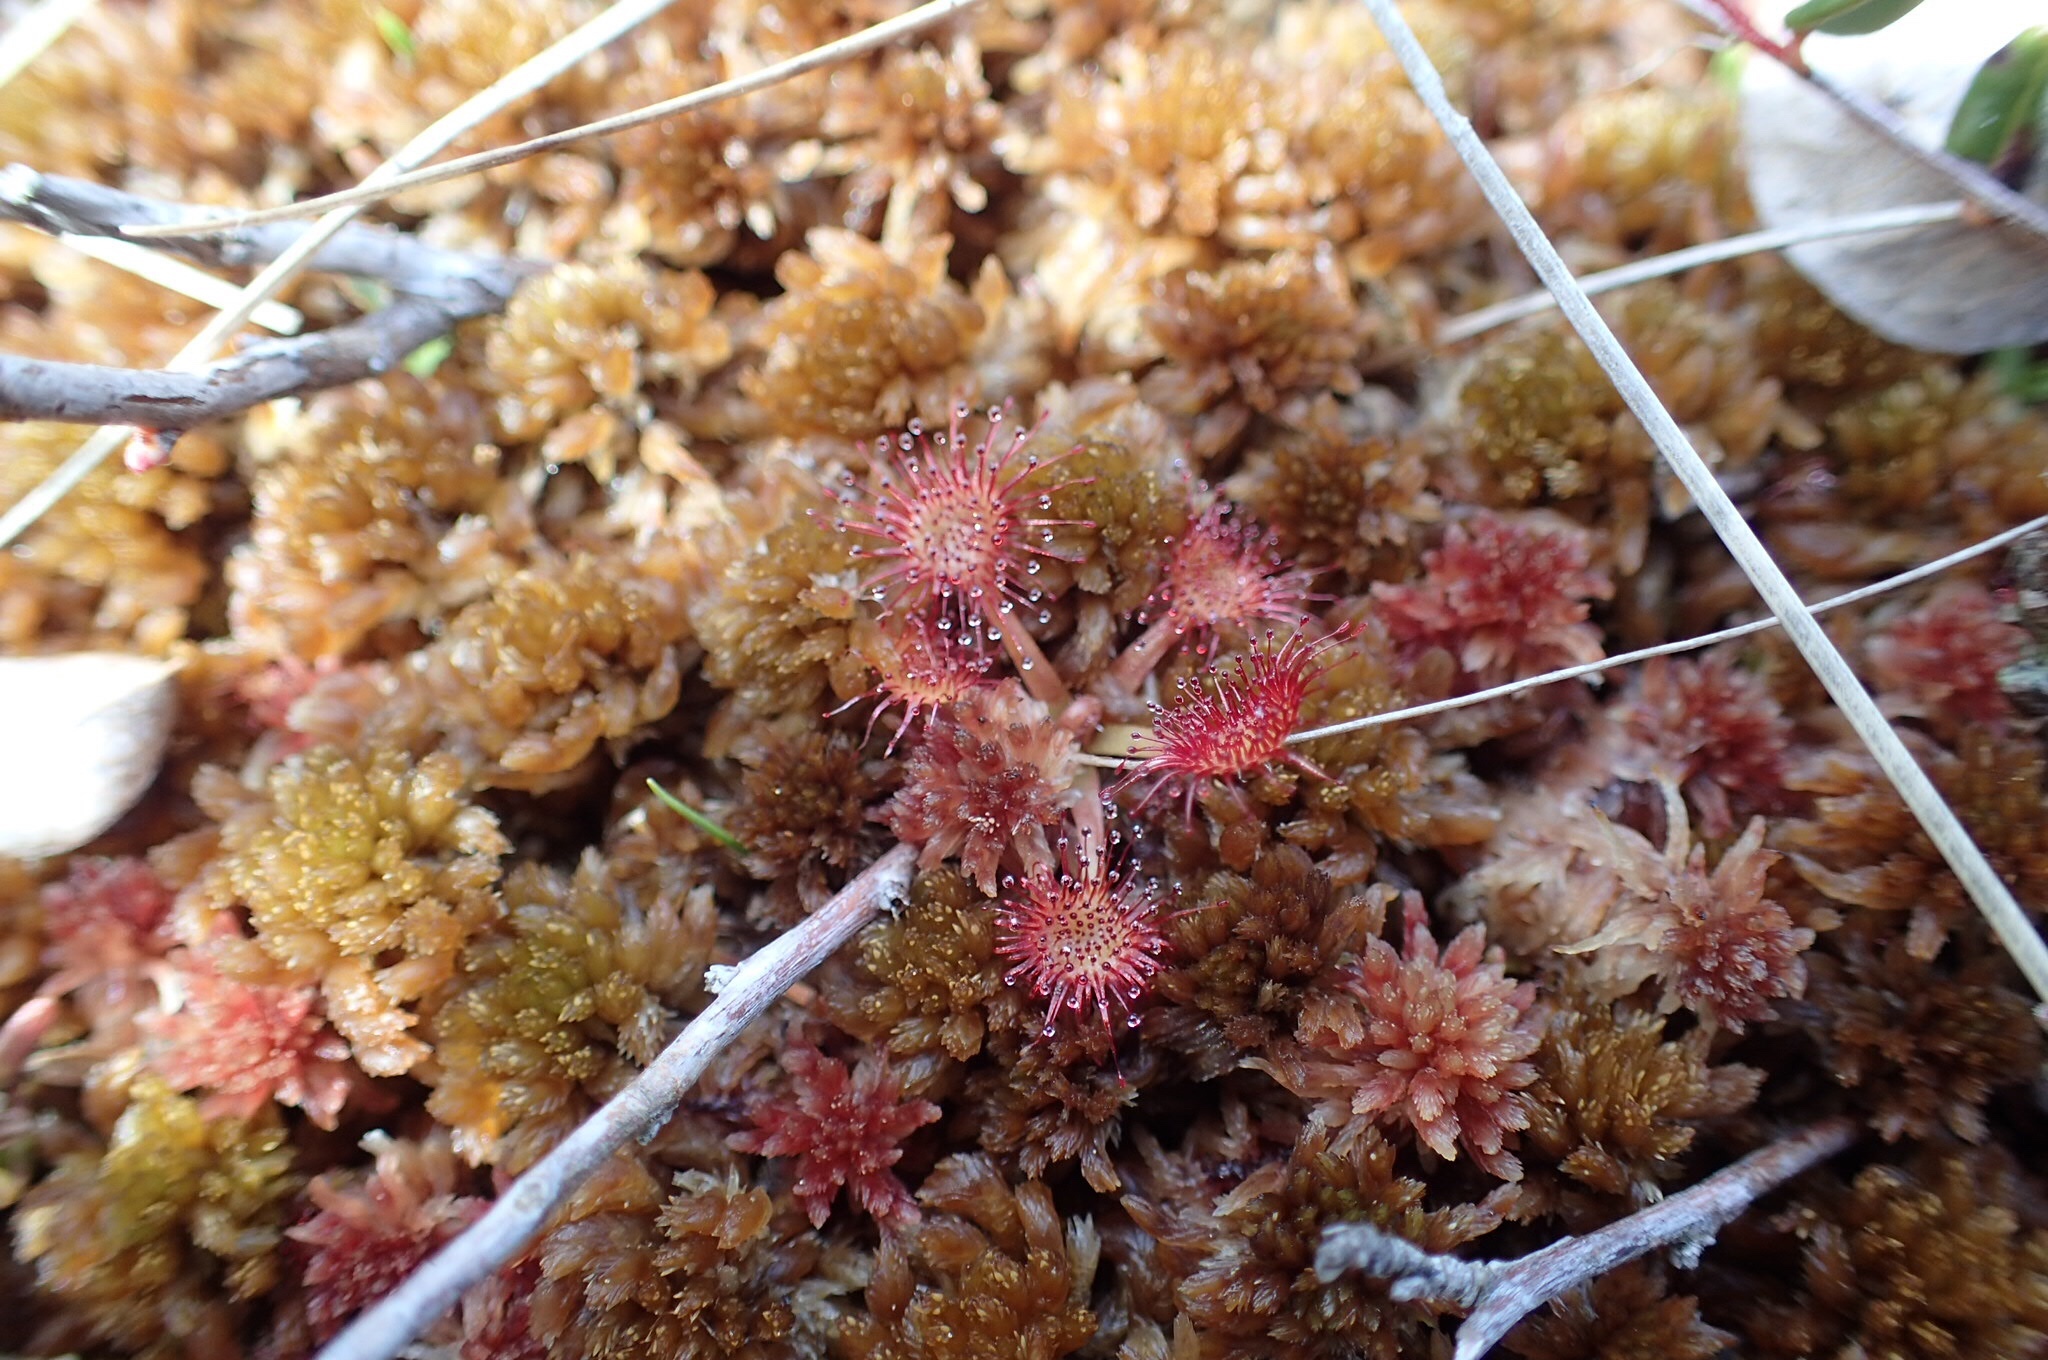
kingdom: Plantae
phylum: Tracheophyta
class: Magnoliopsida
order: Caryophyllales
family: Droseraceae
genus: Drosera
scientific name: Drosera rotundifolia
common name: Round-leaved sundew
